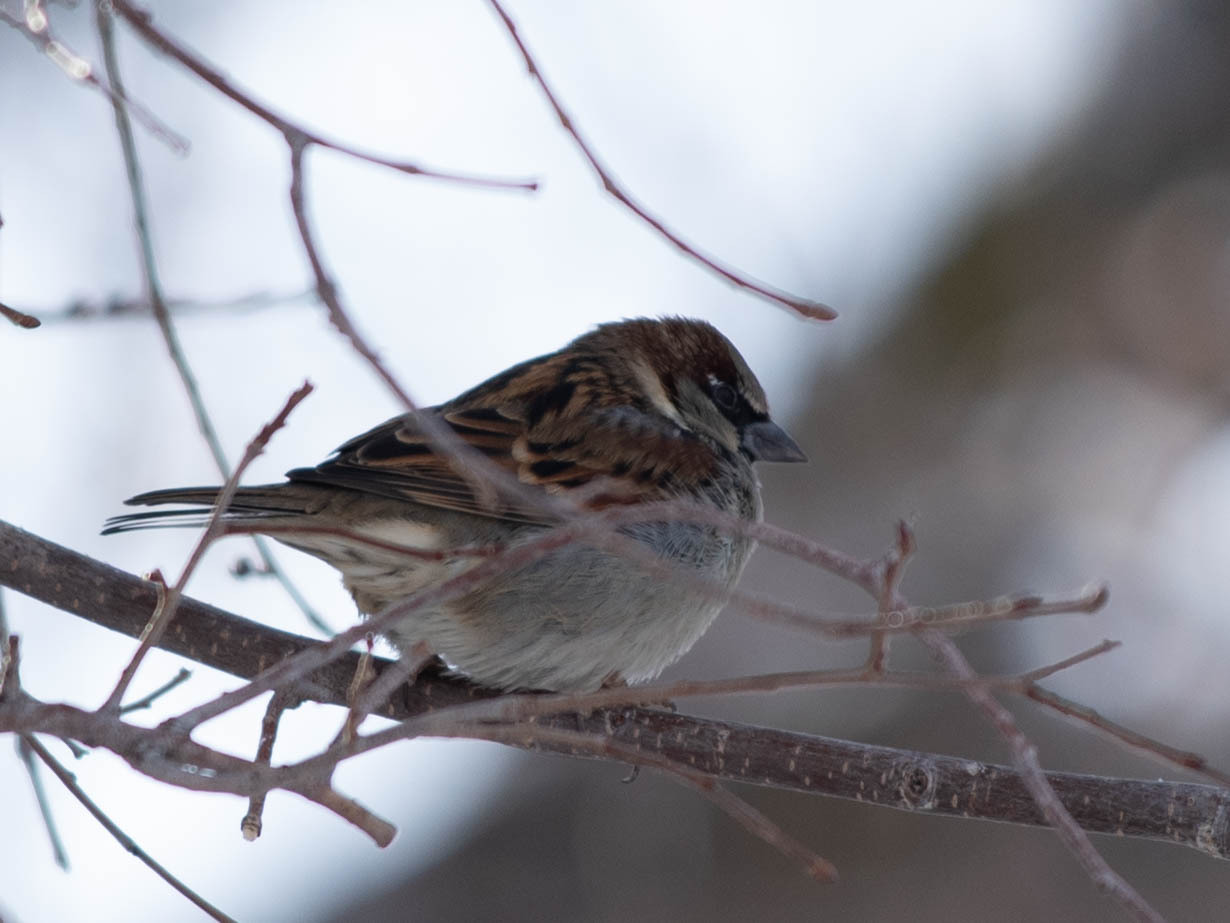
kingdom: Animalia
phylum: Chordata
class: Aves
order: Passeriformes
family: Passeridae
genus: Passer
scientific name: Passer domesticus
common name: House sparrow
